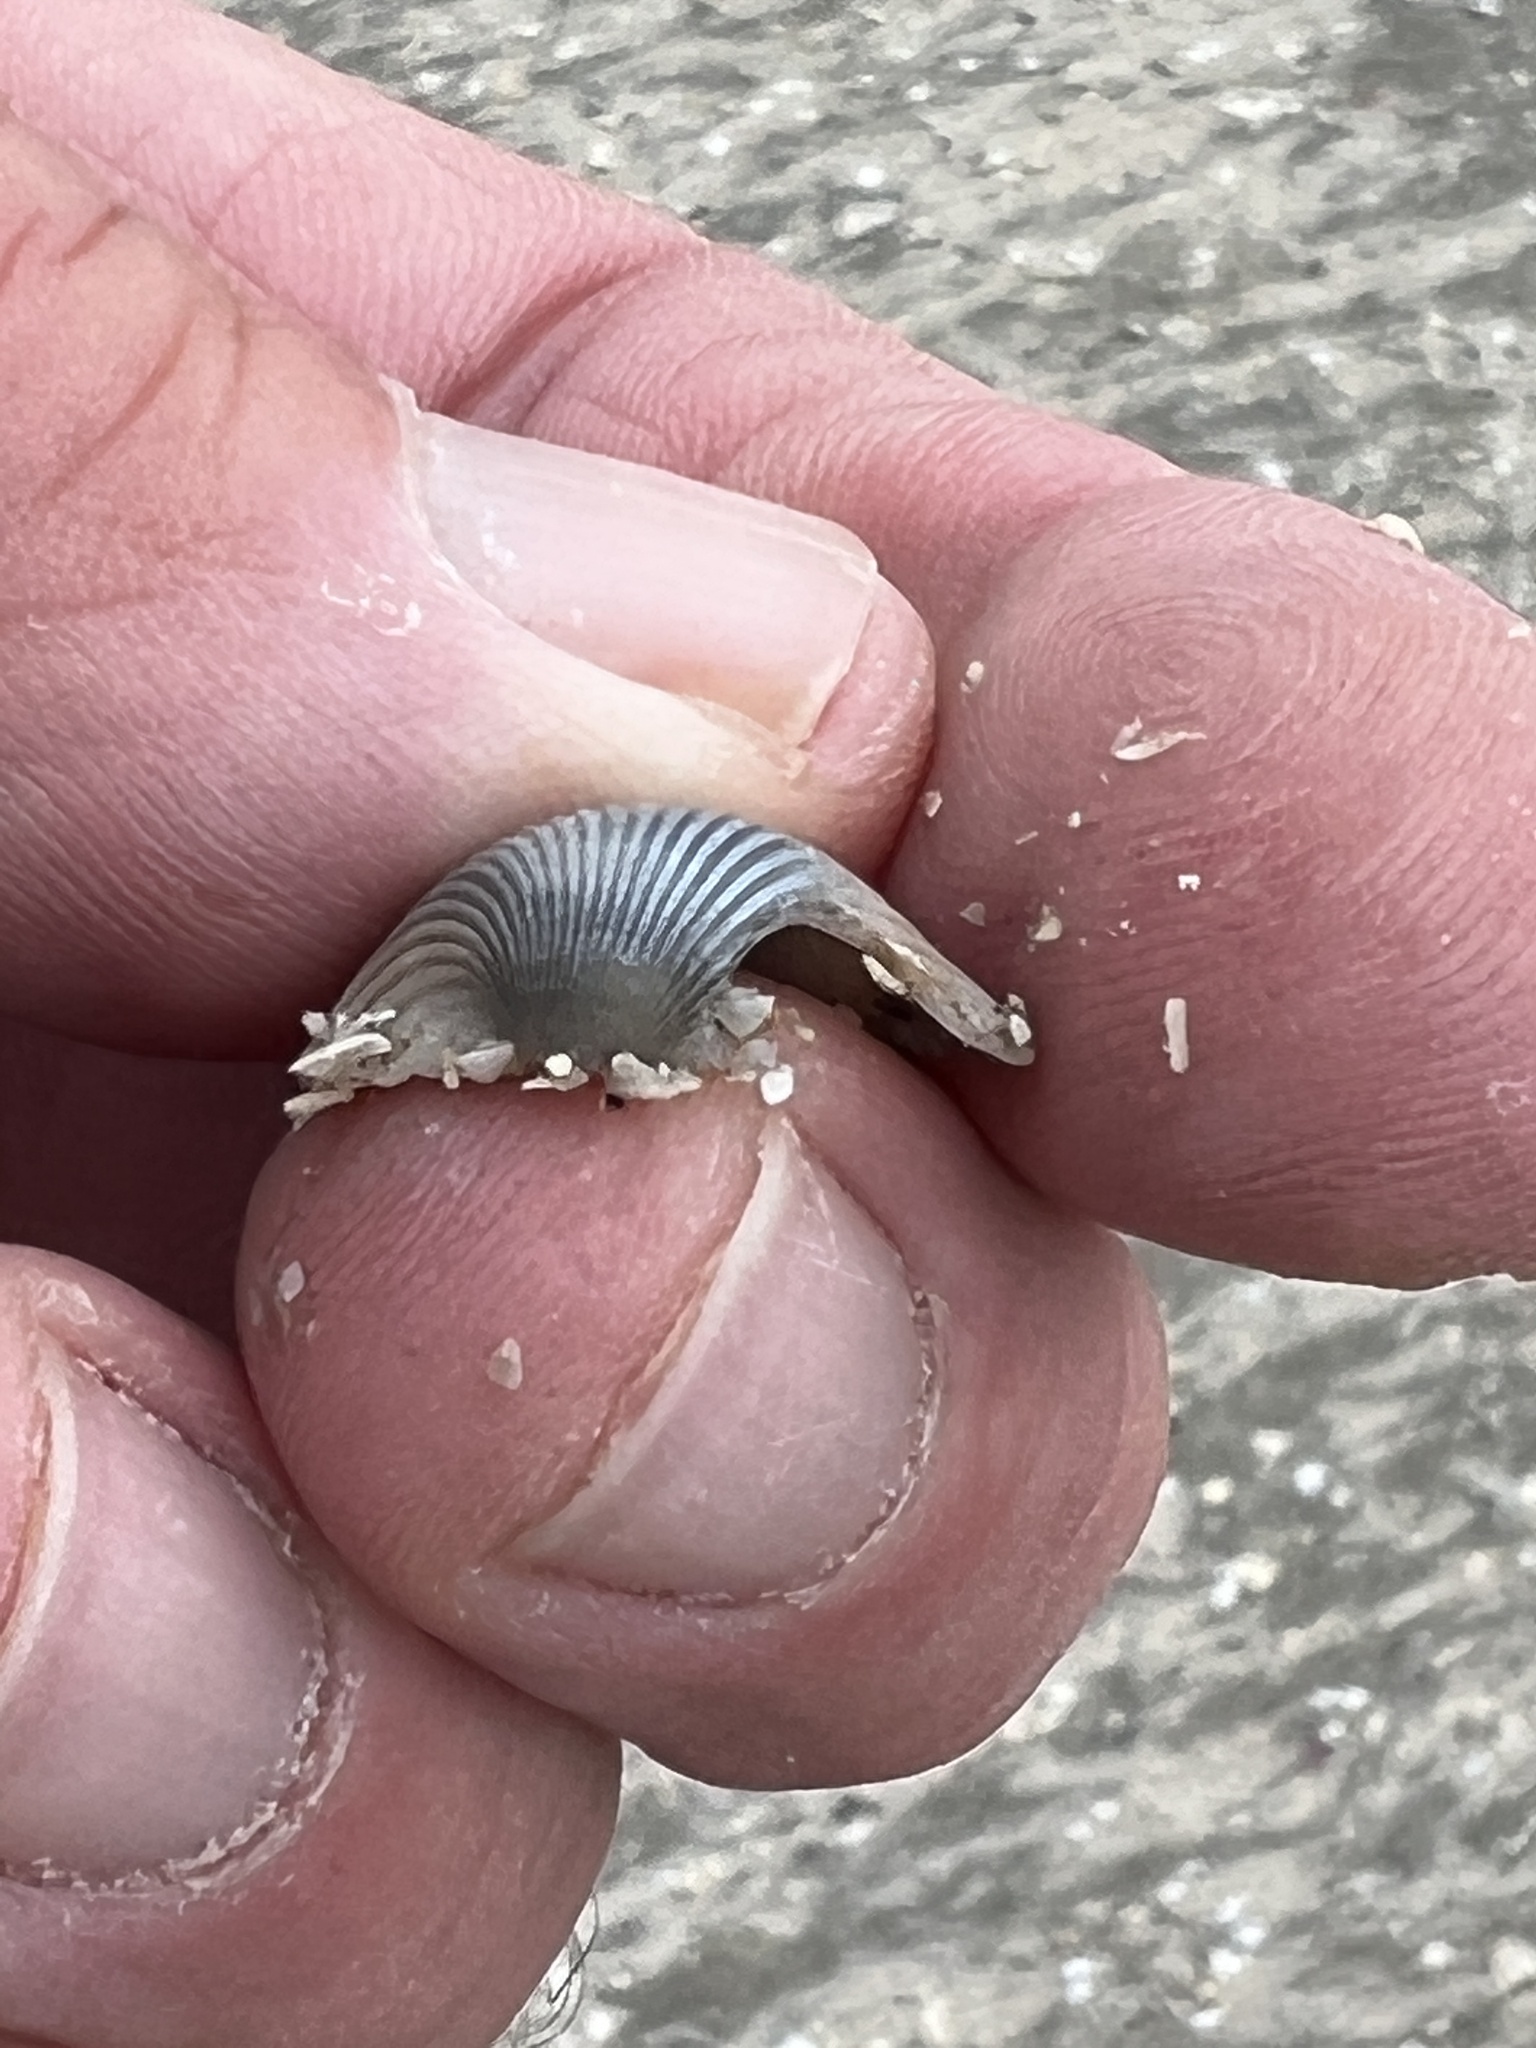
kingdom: Animalia
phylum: Mollusca
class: Bivalvia
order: Arcida
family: Arcidae
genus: Lunarca
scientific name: Lunarca ovalis
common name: Blood ark
